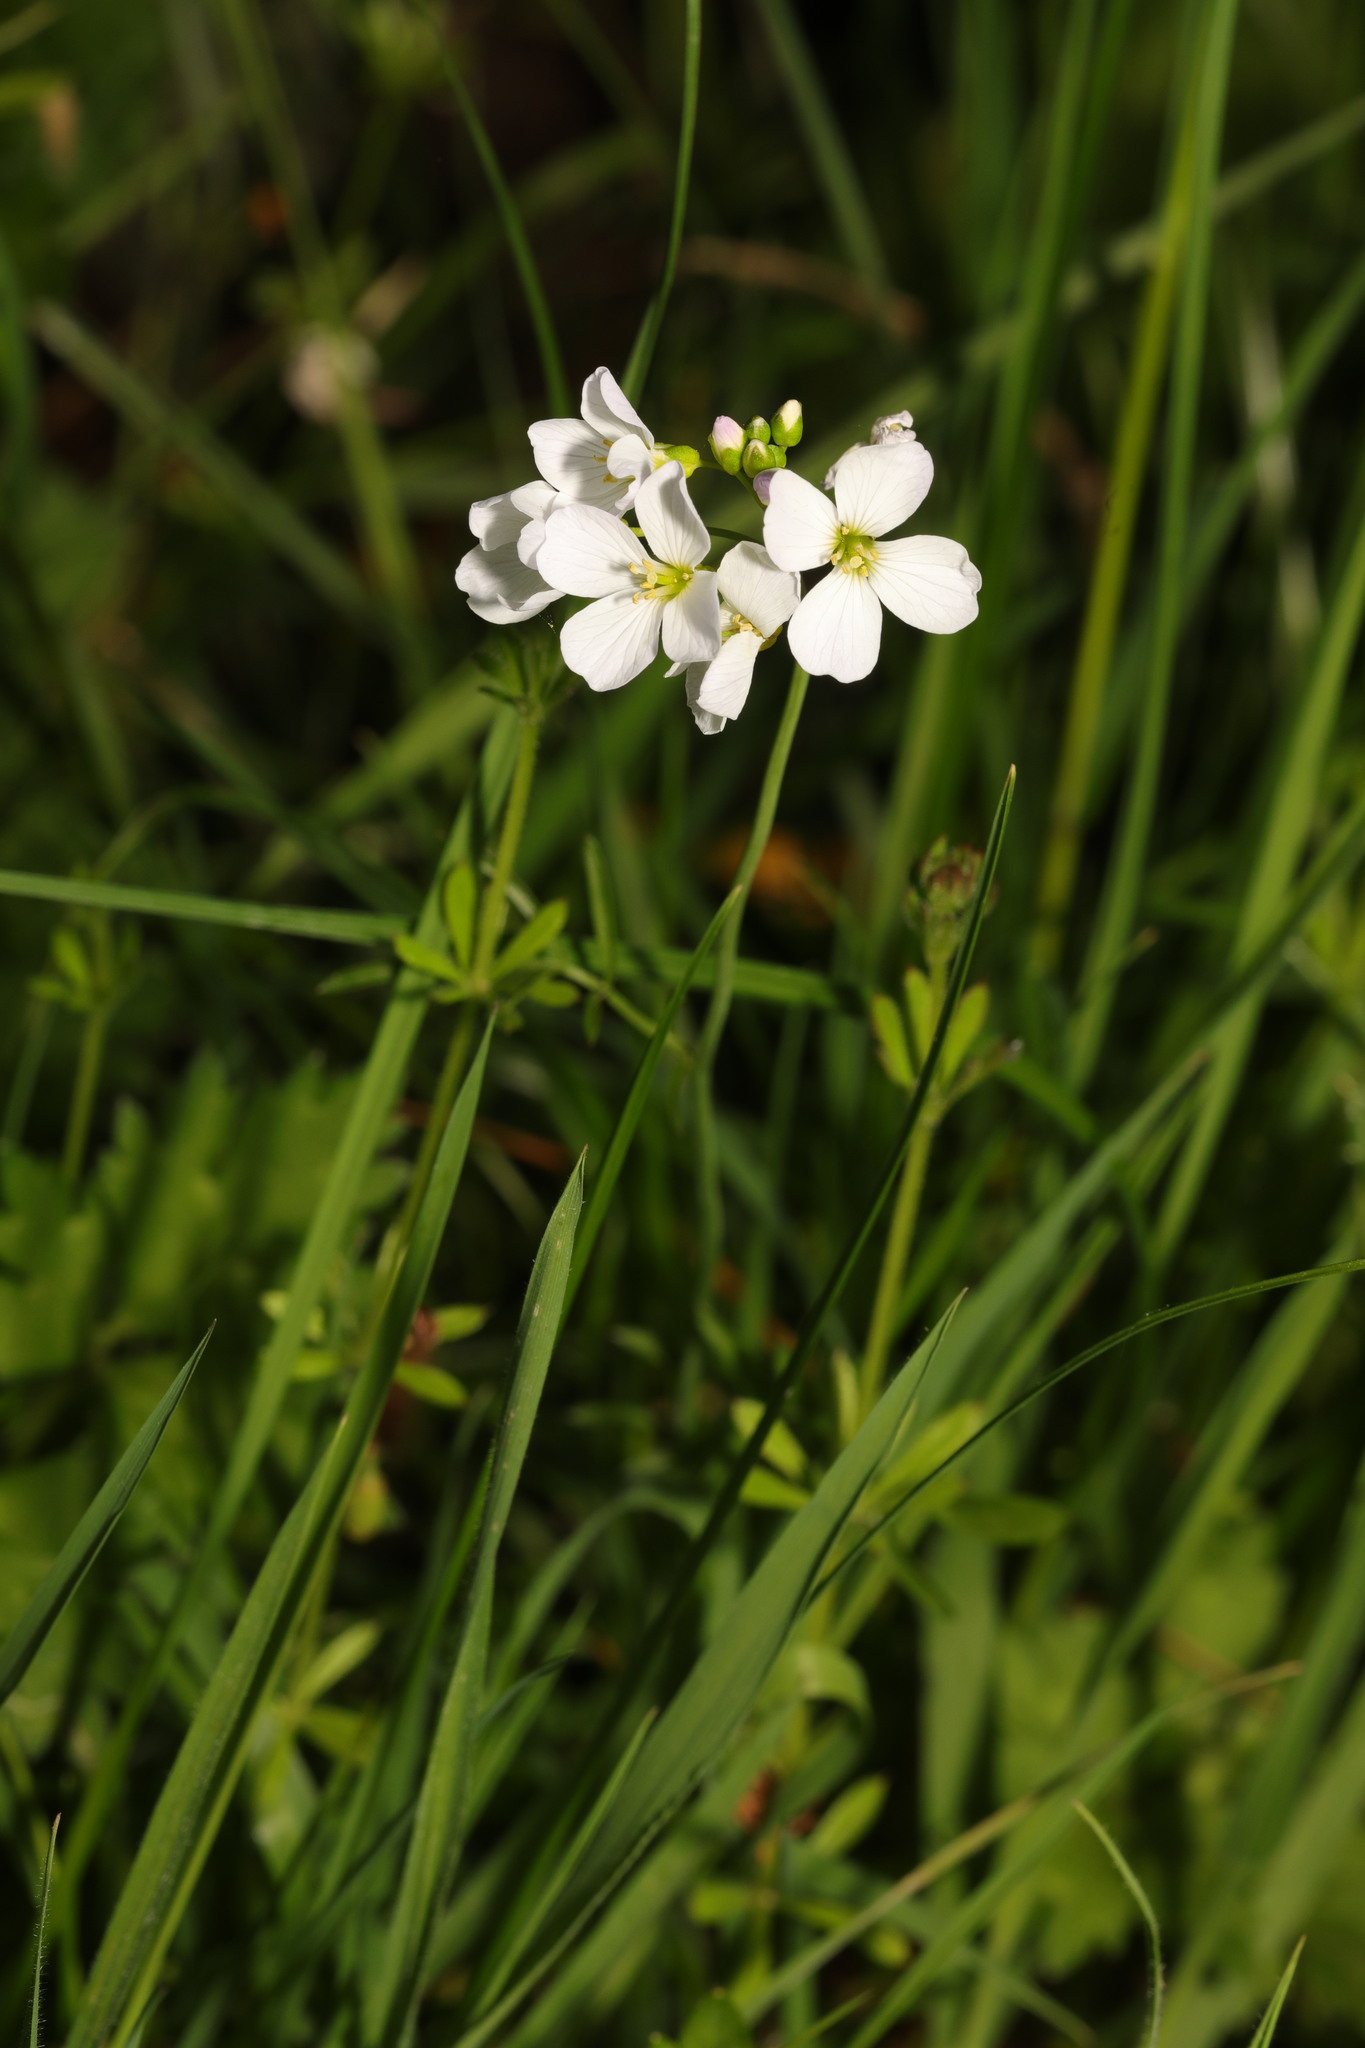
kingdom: Plantae
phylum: Tracheophyta
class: Magnoliopsida
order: Brassicales
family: Brassicaceae
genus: Cardamine
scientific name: Cardamine pratensis
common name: Cuckoo flower
